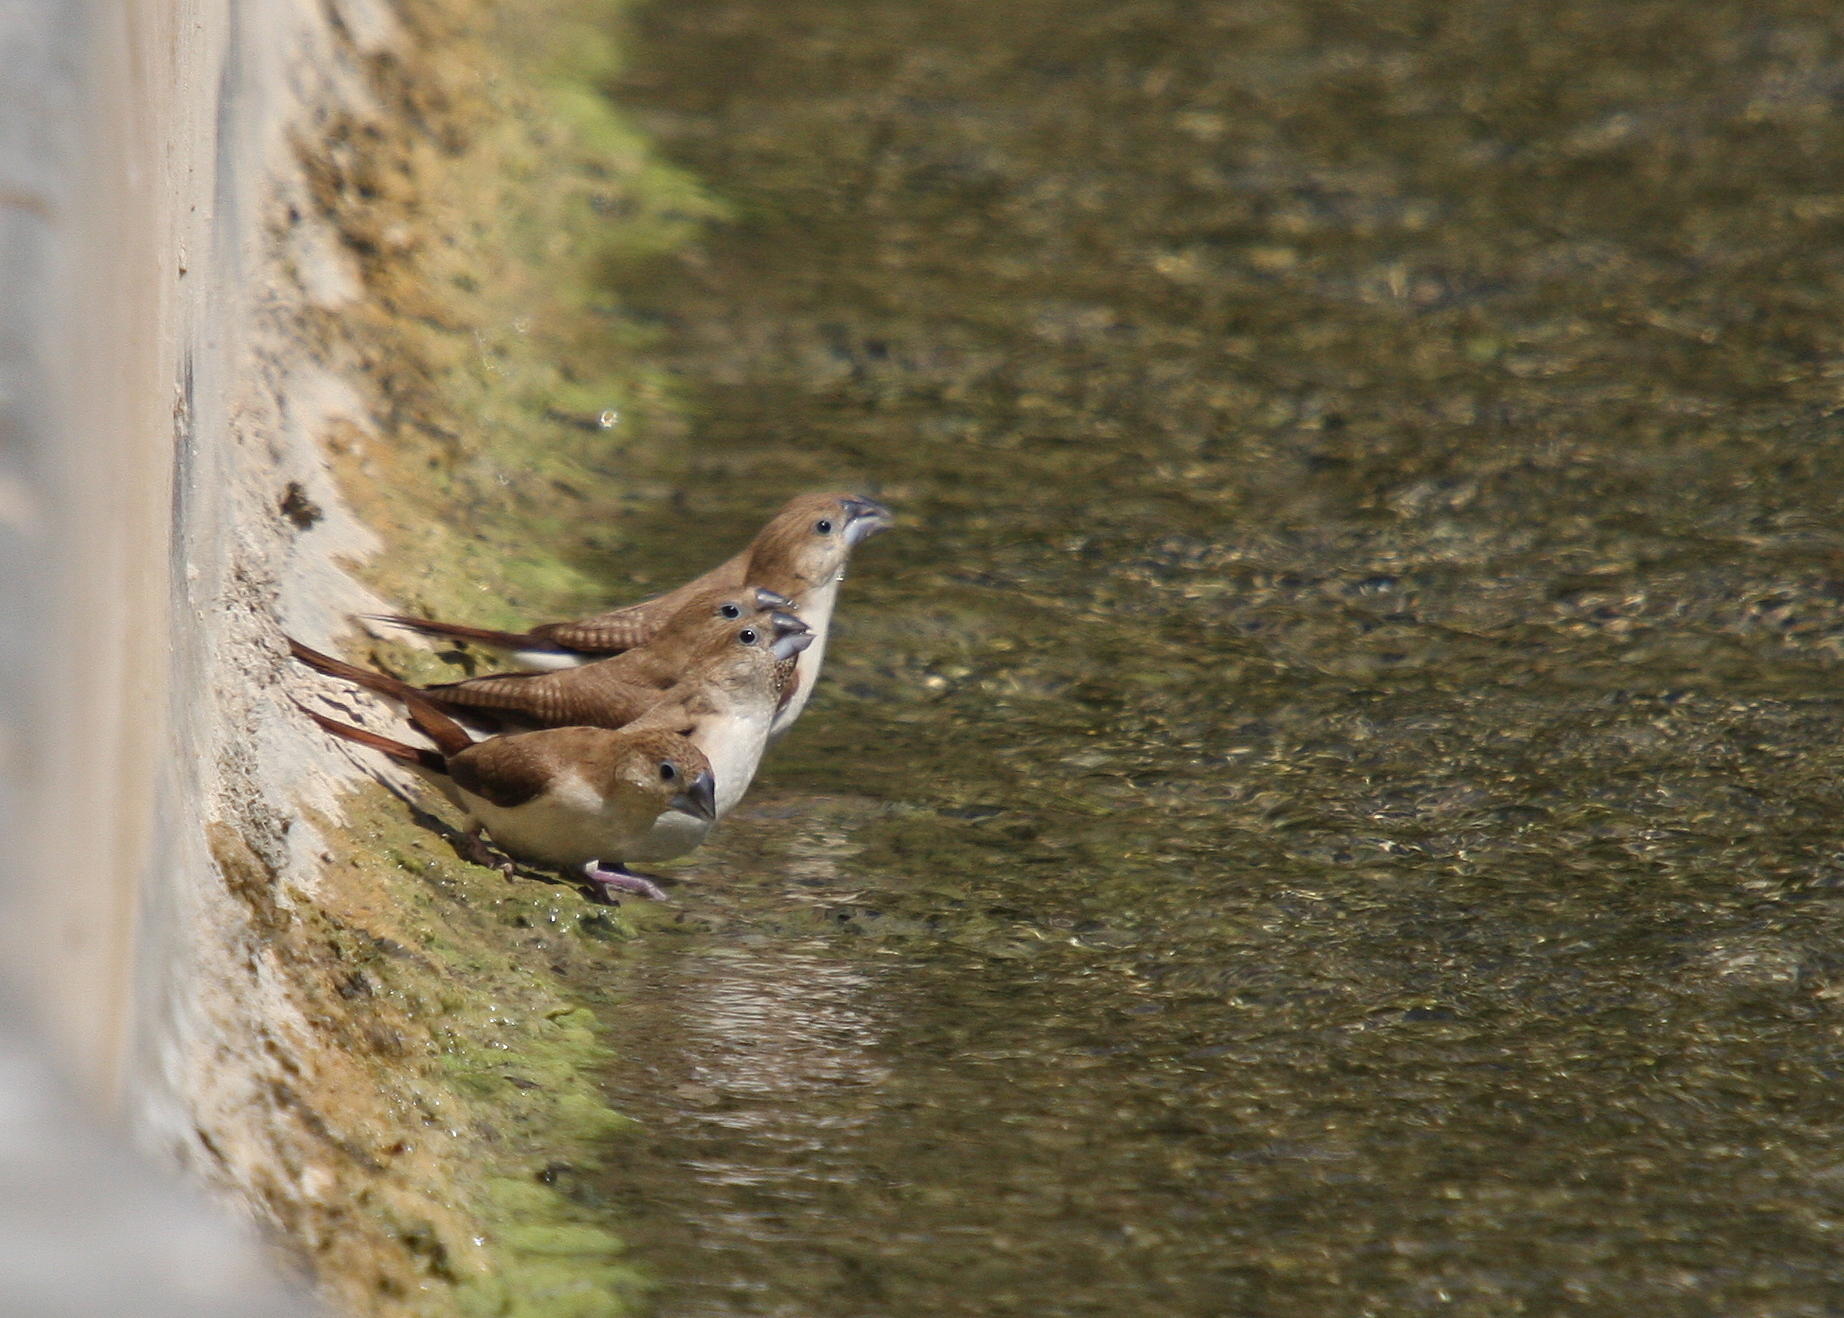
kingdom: Animalia
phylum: Chordata
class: Aves
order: Passeriformes
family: Estrildidae
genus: Euodice
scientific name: Euodice cantans
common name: African silverbill
